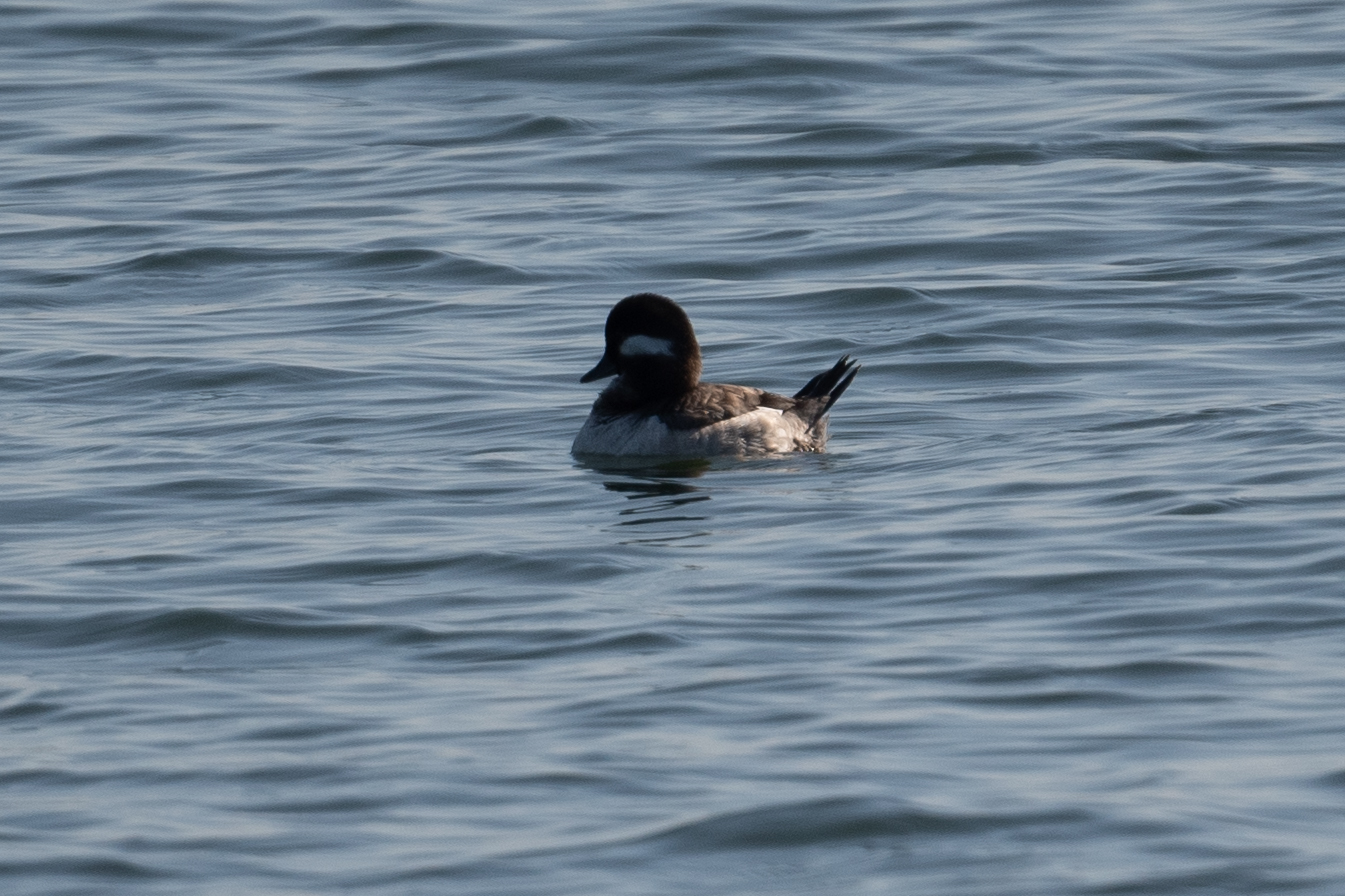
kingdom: Animalia
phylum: Chordata
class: Aves
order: Anseriformes
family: Anatidae
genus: Bucephala
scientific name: Bucephala albeola
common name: Bufflehead
